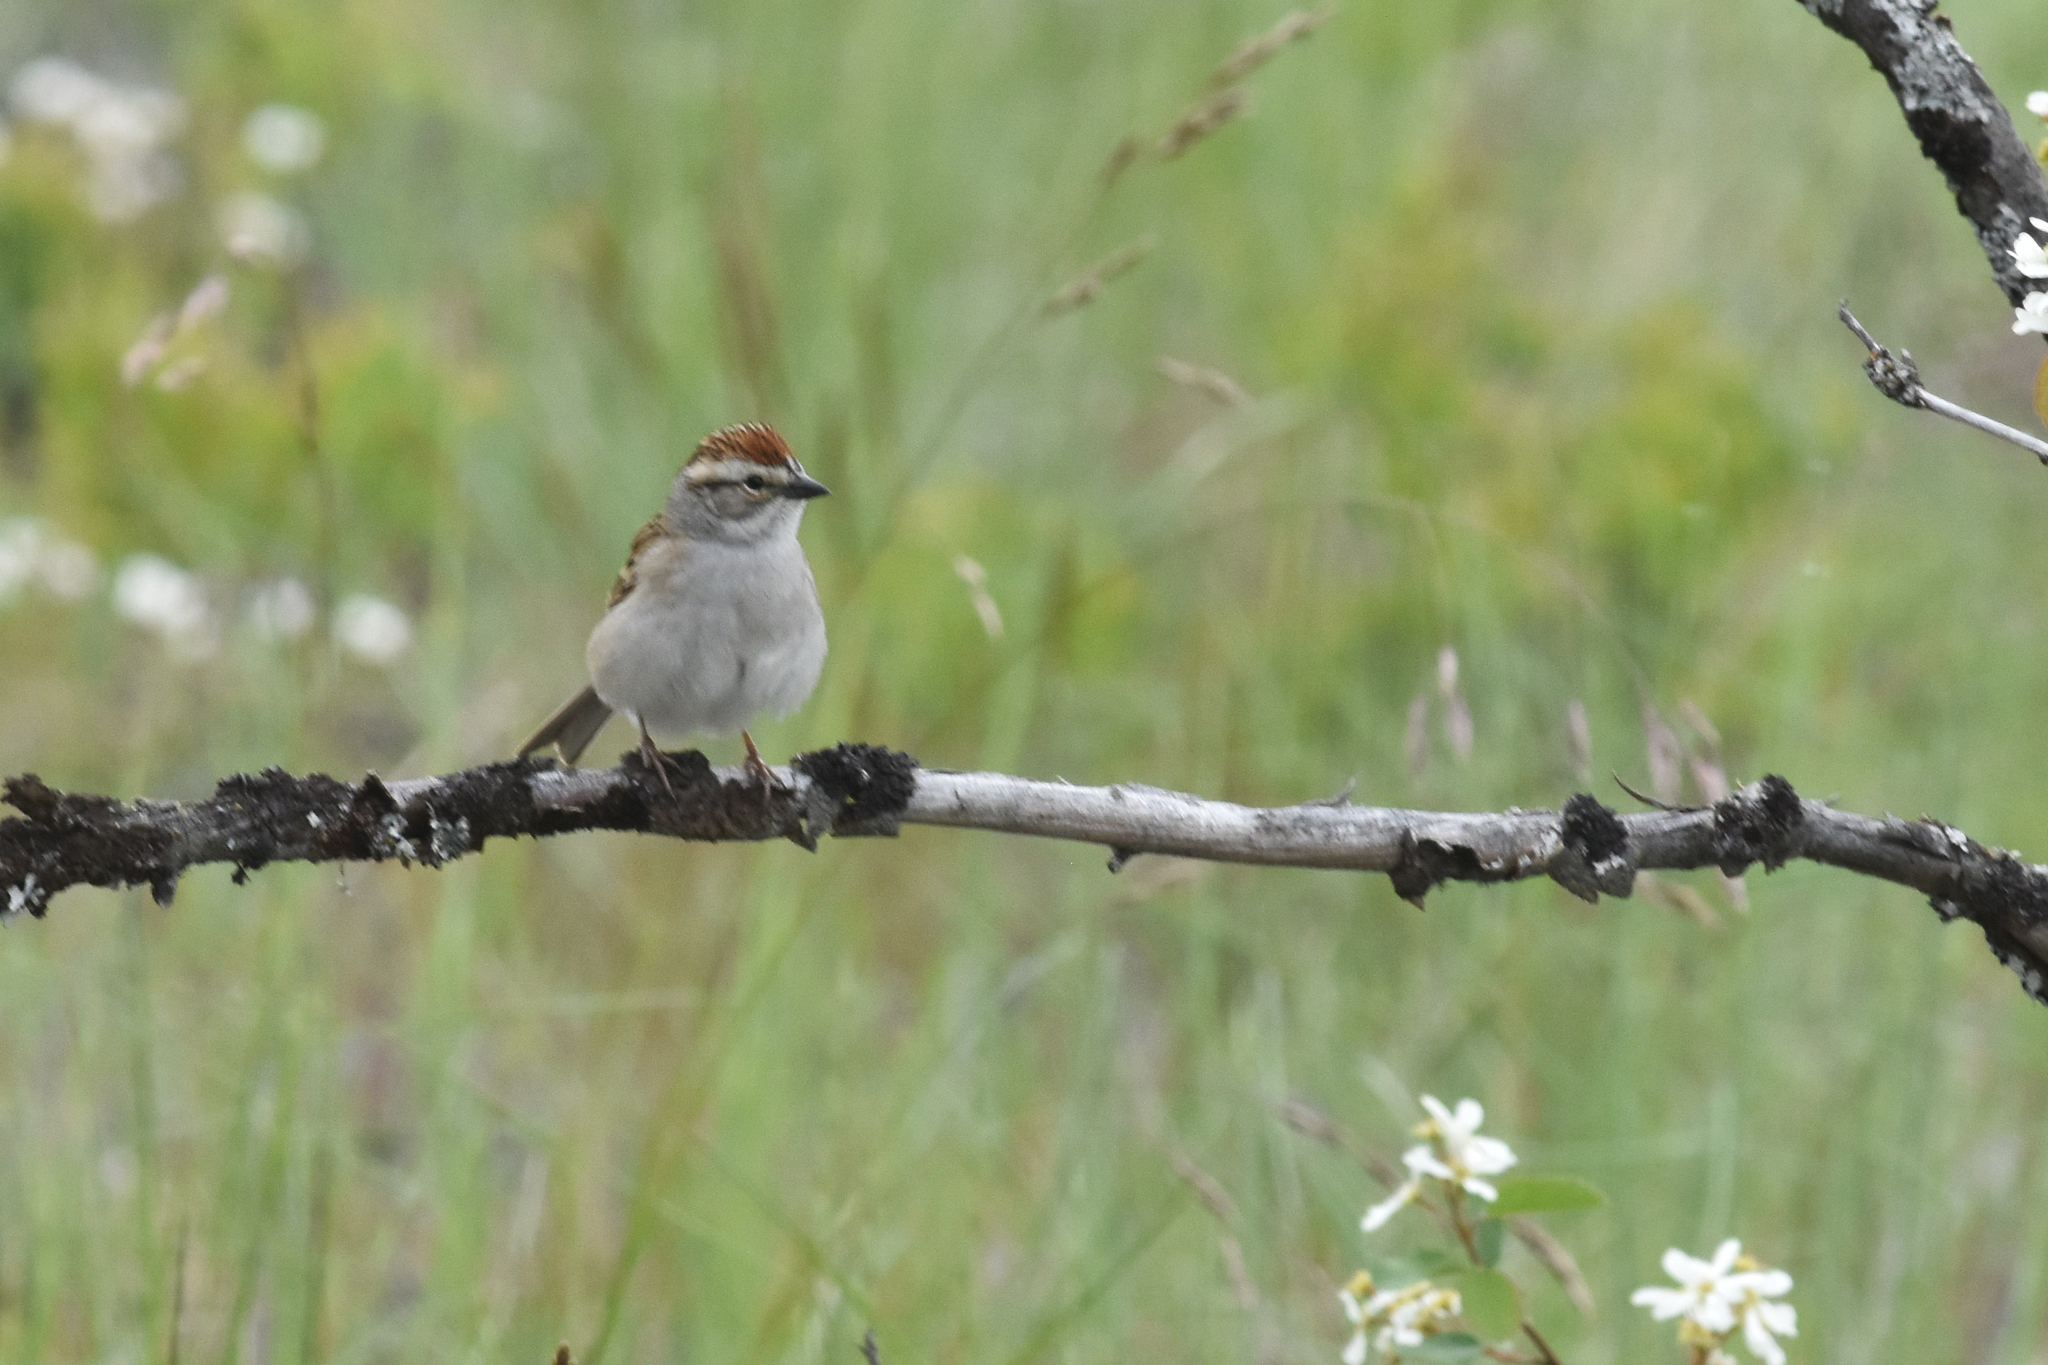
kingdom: Animalia
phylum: Chordata
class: Aves
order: Passeriformes
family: Passerellidae
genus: Spizella
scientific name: Spizella passerina
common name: Chipping sparrow
